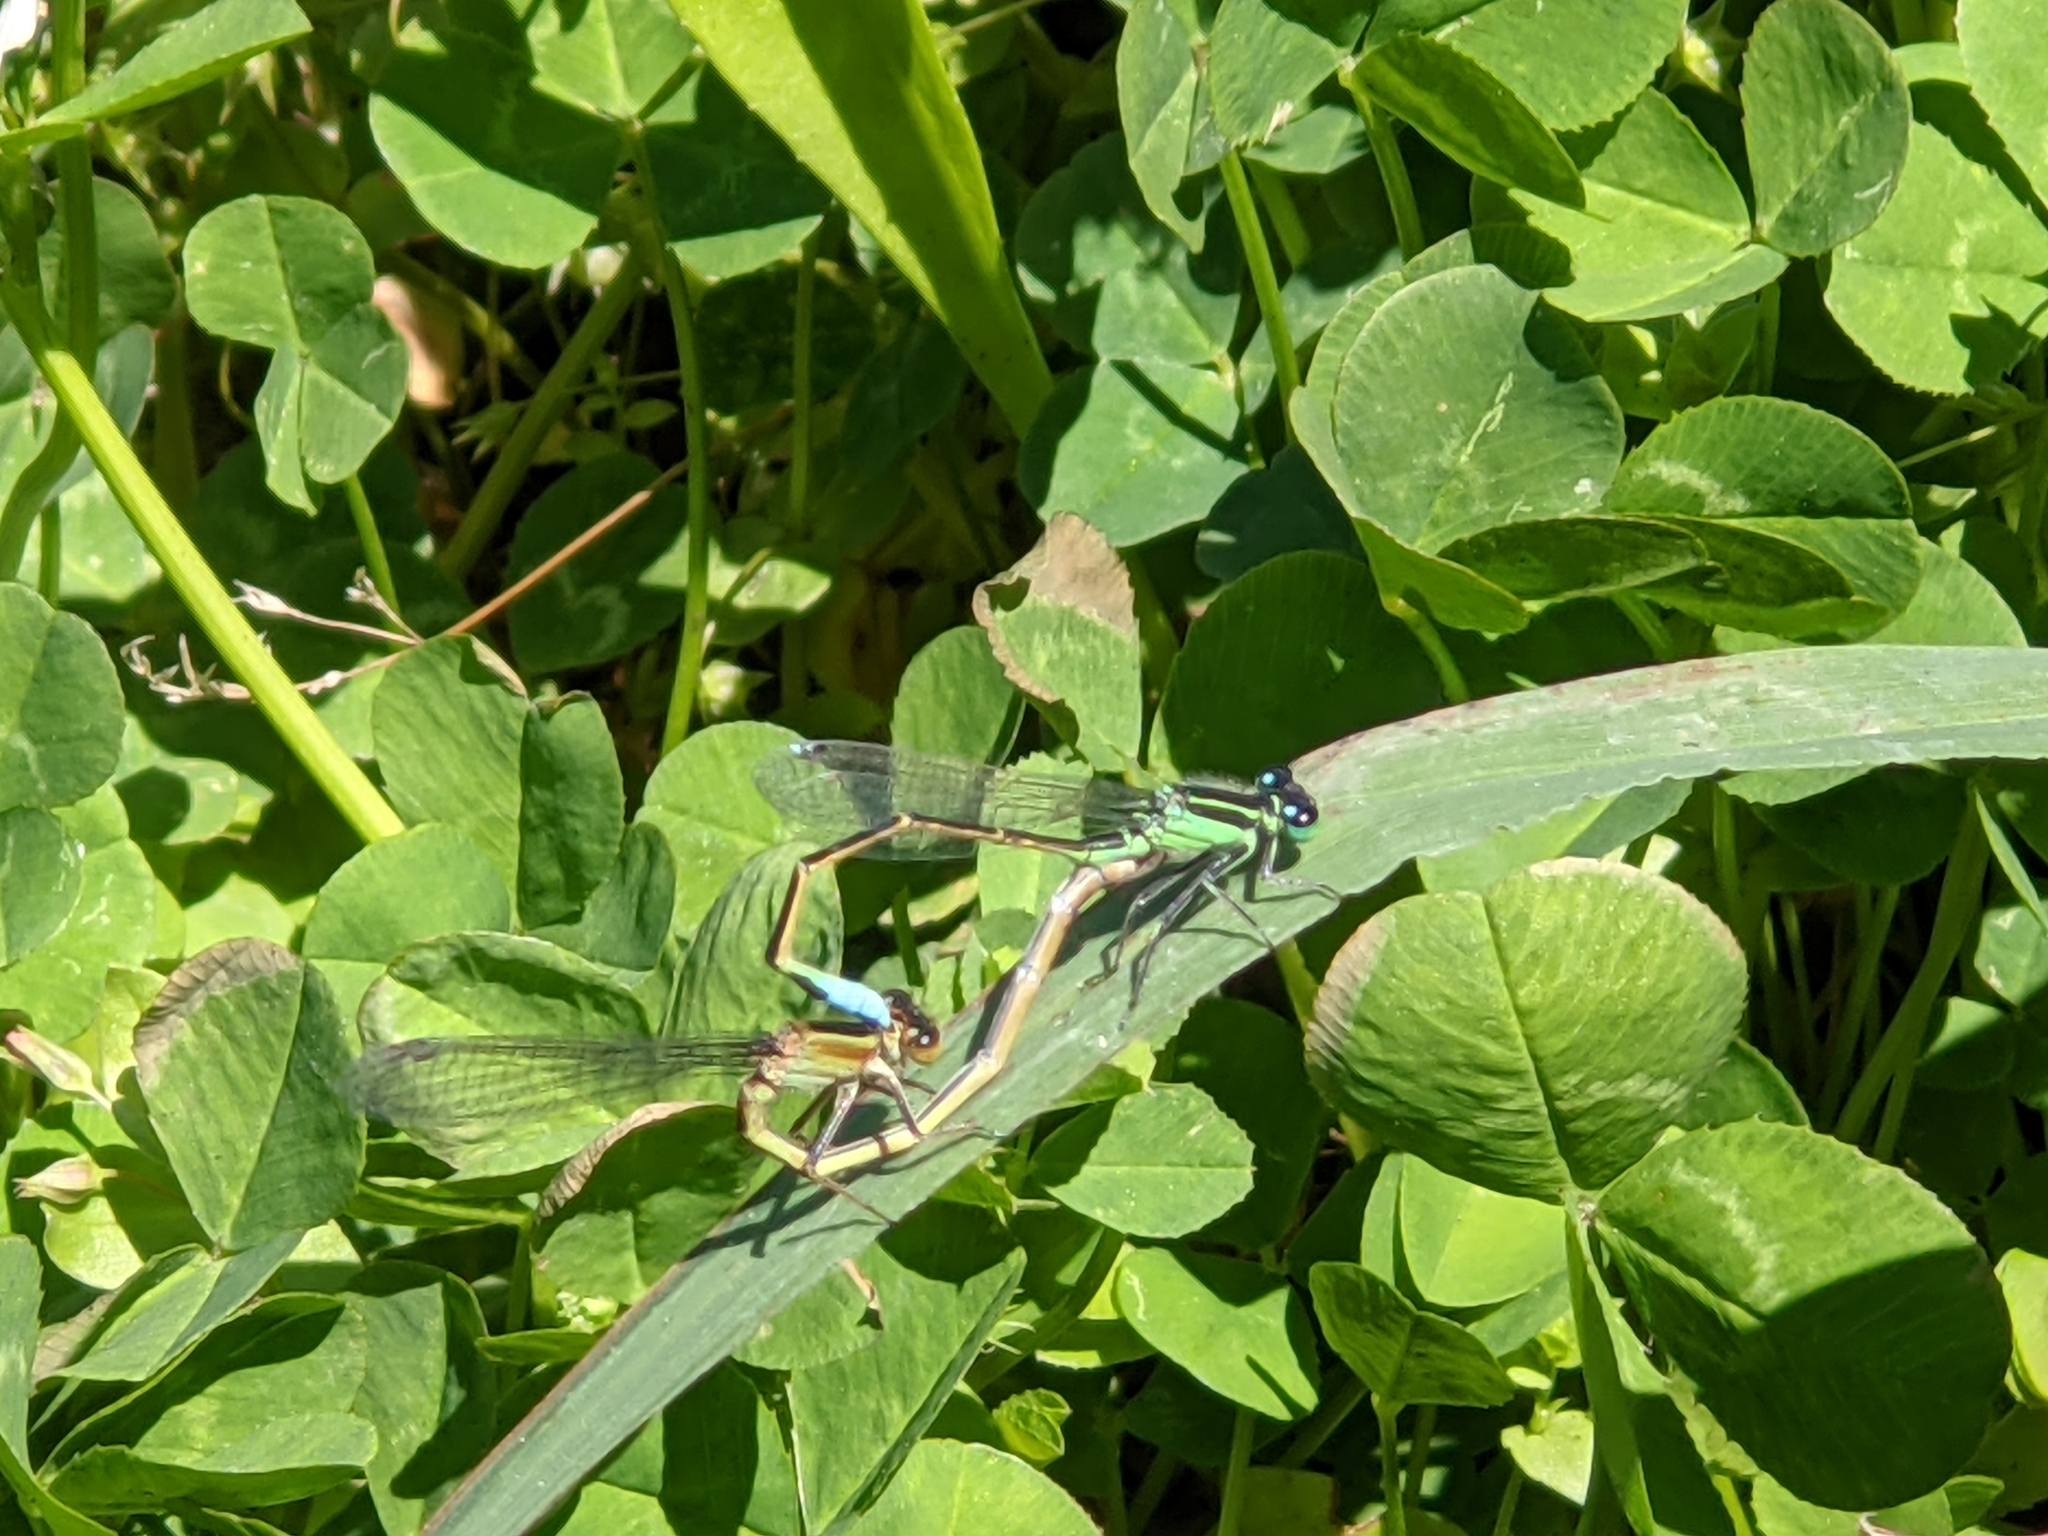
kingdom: Animalia
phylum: Arthropoda
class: Insecta
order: Odonata
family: Coenagrionidae
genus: Ischnura
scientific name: Ischnura ramburii
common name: Rambur's forktail
